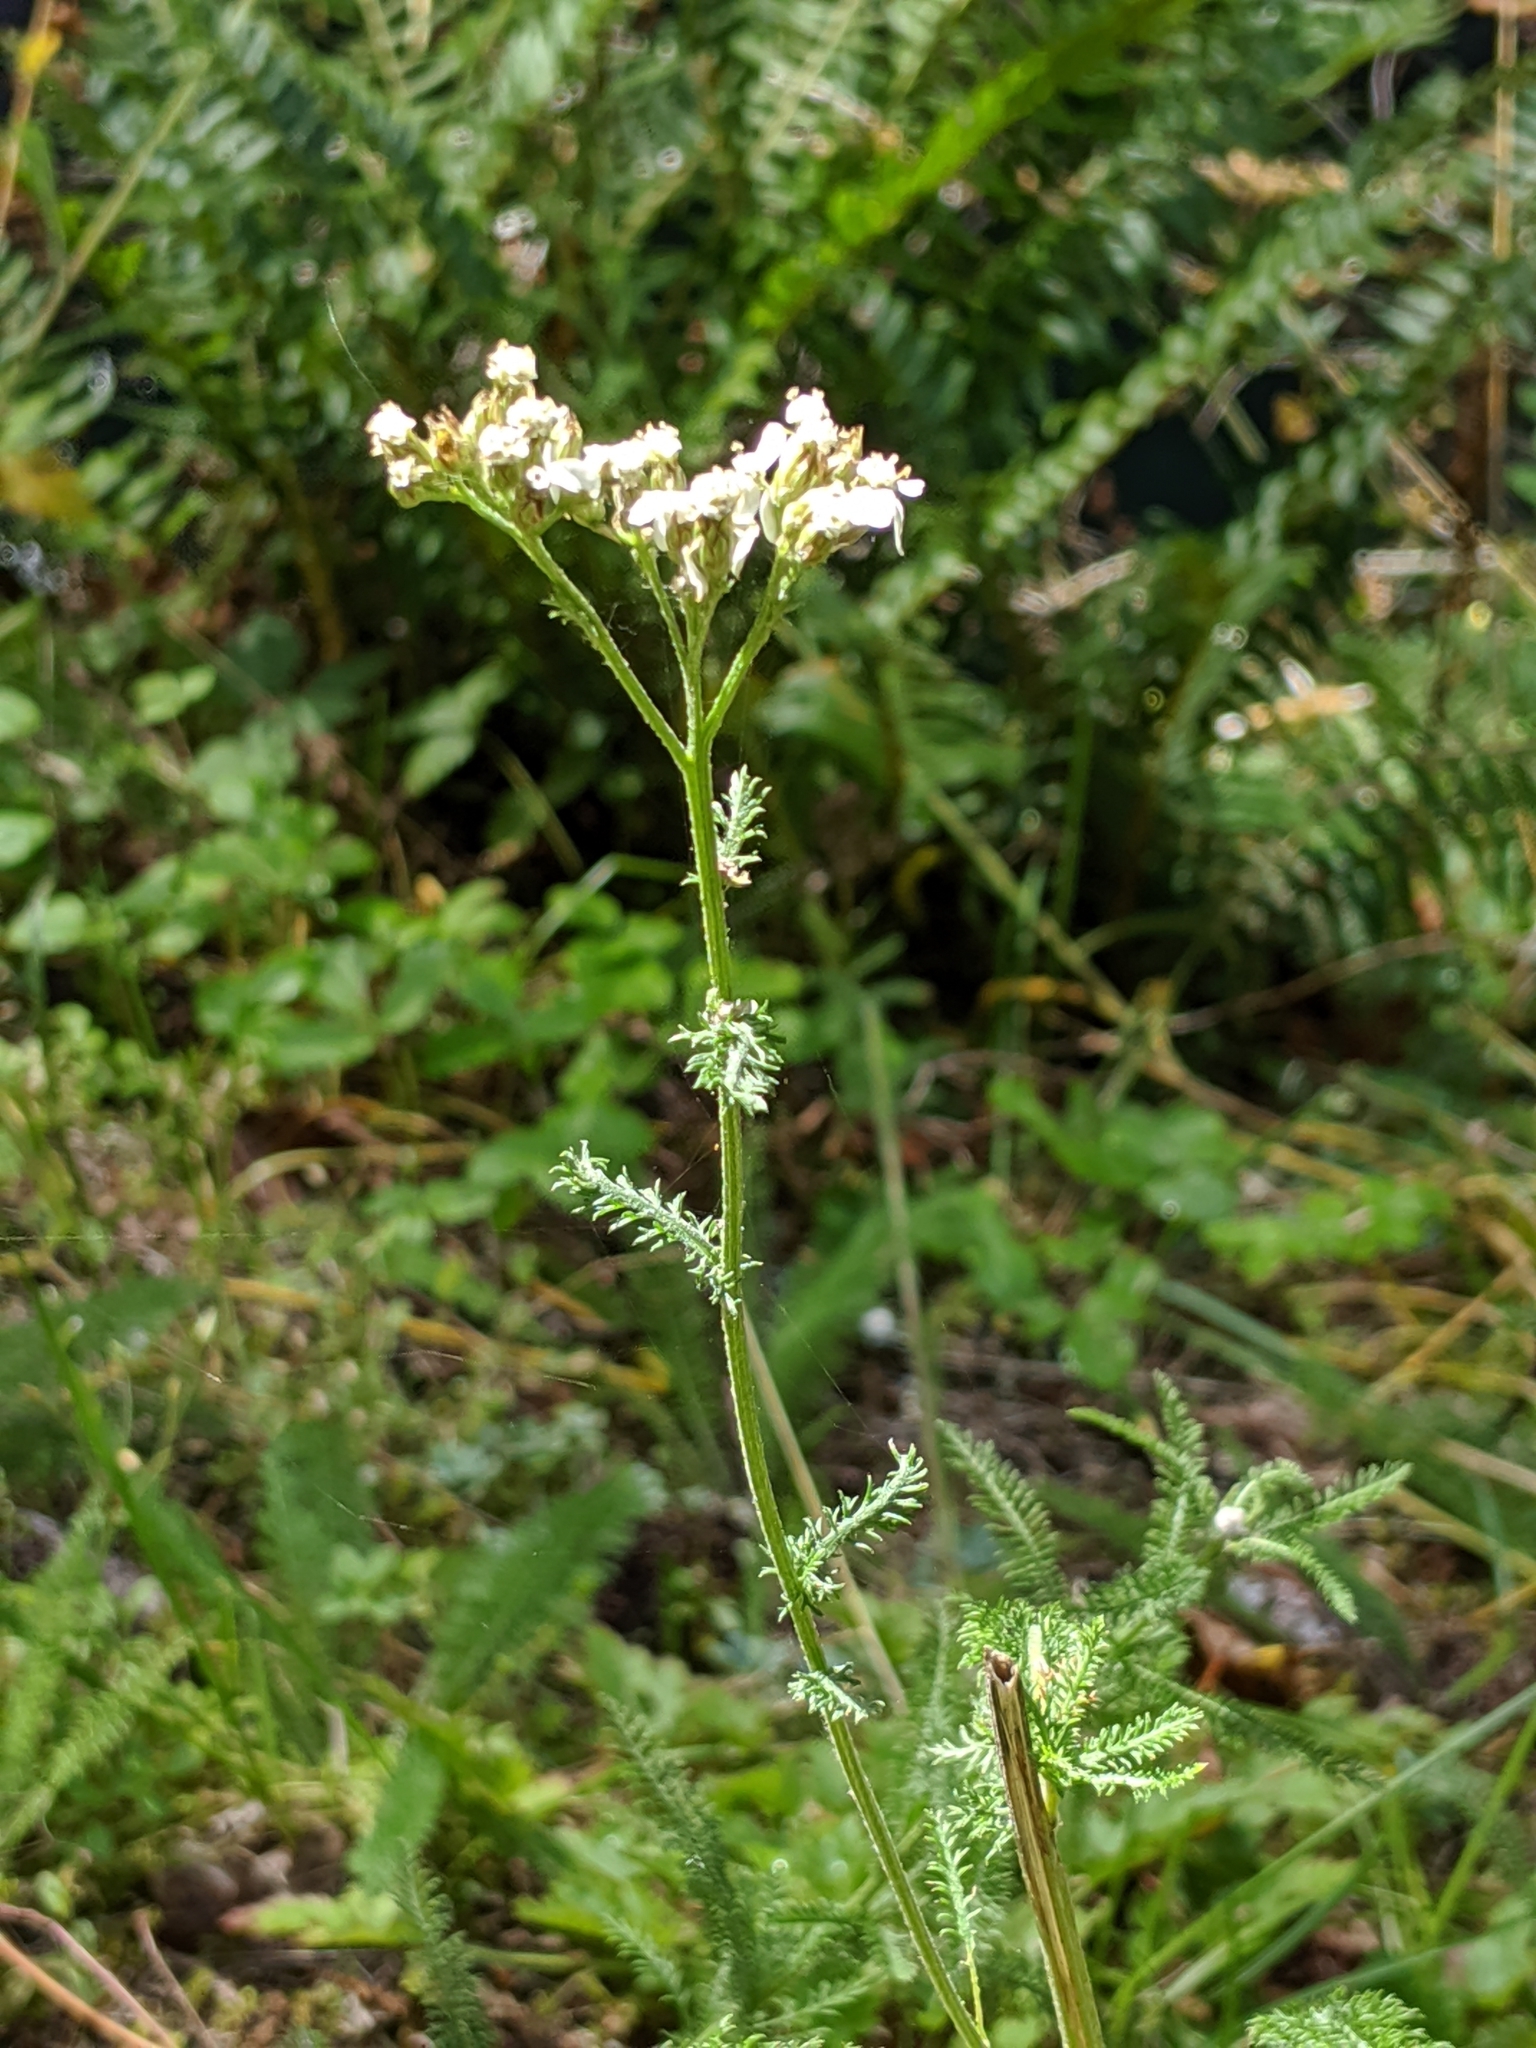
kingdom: Plantae
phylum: Tracheophyta
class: Magnoliopsida
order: Asterales
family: Asteraceae
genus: Achillea
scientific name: Achillea millefolium
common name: Yarrow
